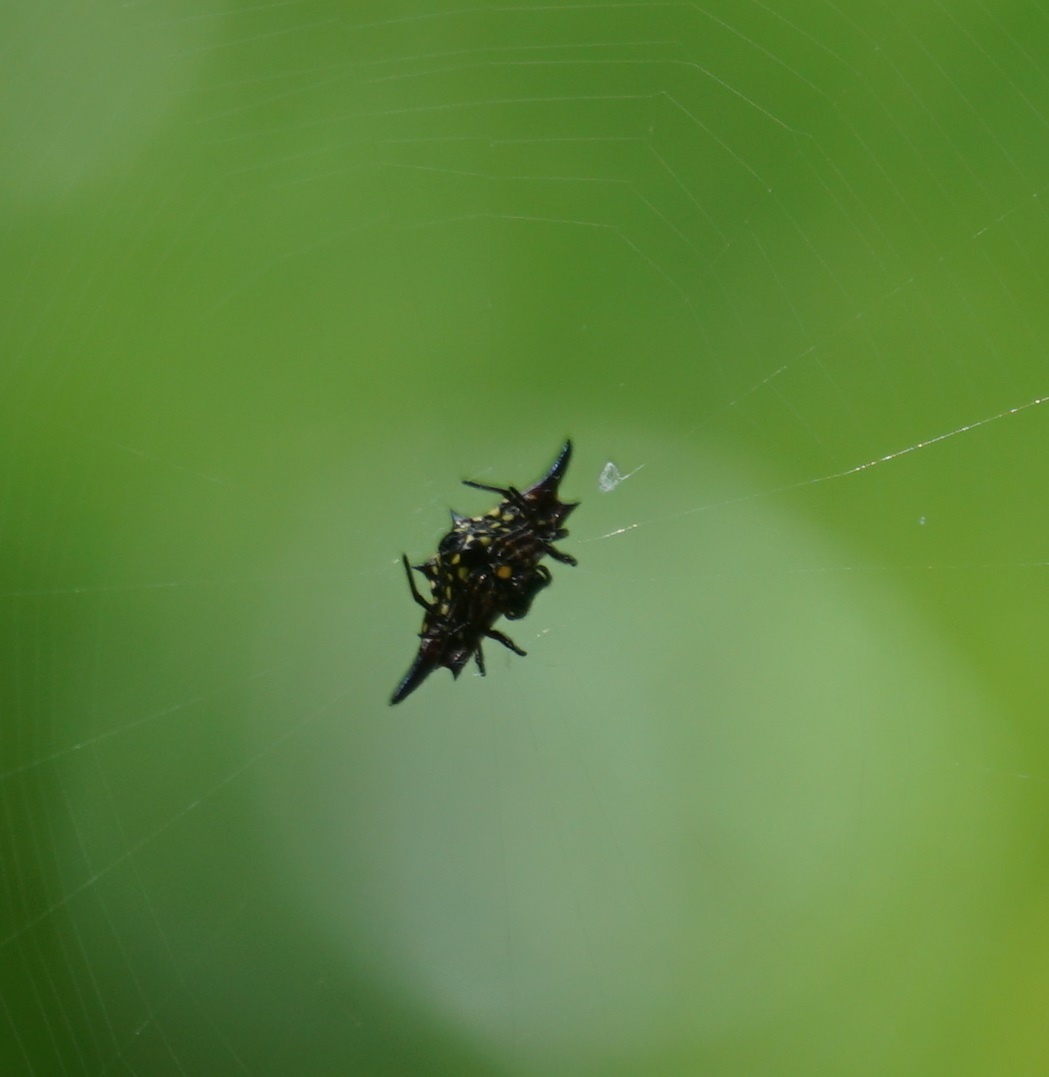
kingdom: Animalia
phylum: Arthropoda
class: Arachnida
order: Araneae
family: Araneidae
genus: Gasteracantha
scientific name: Gasteracantha fornicata
